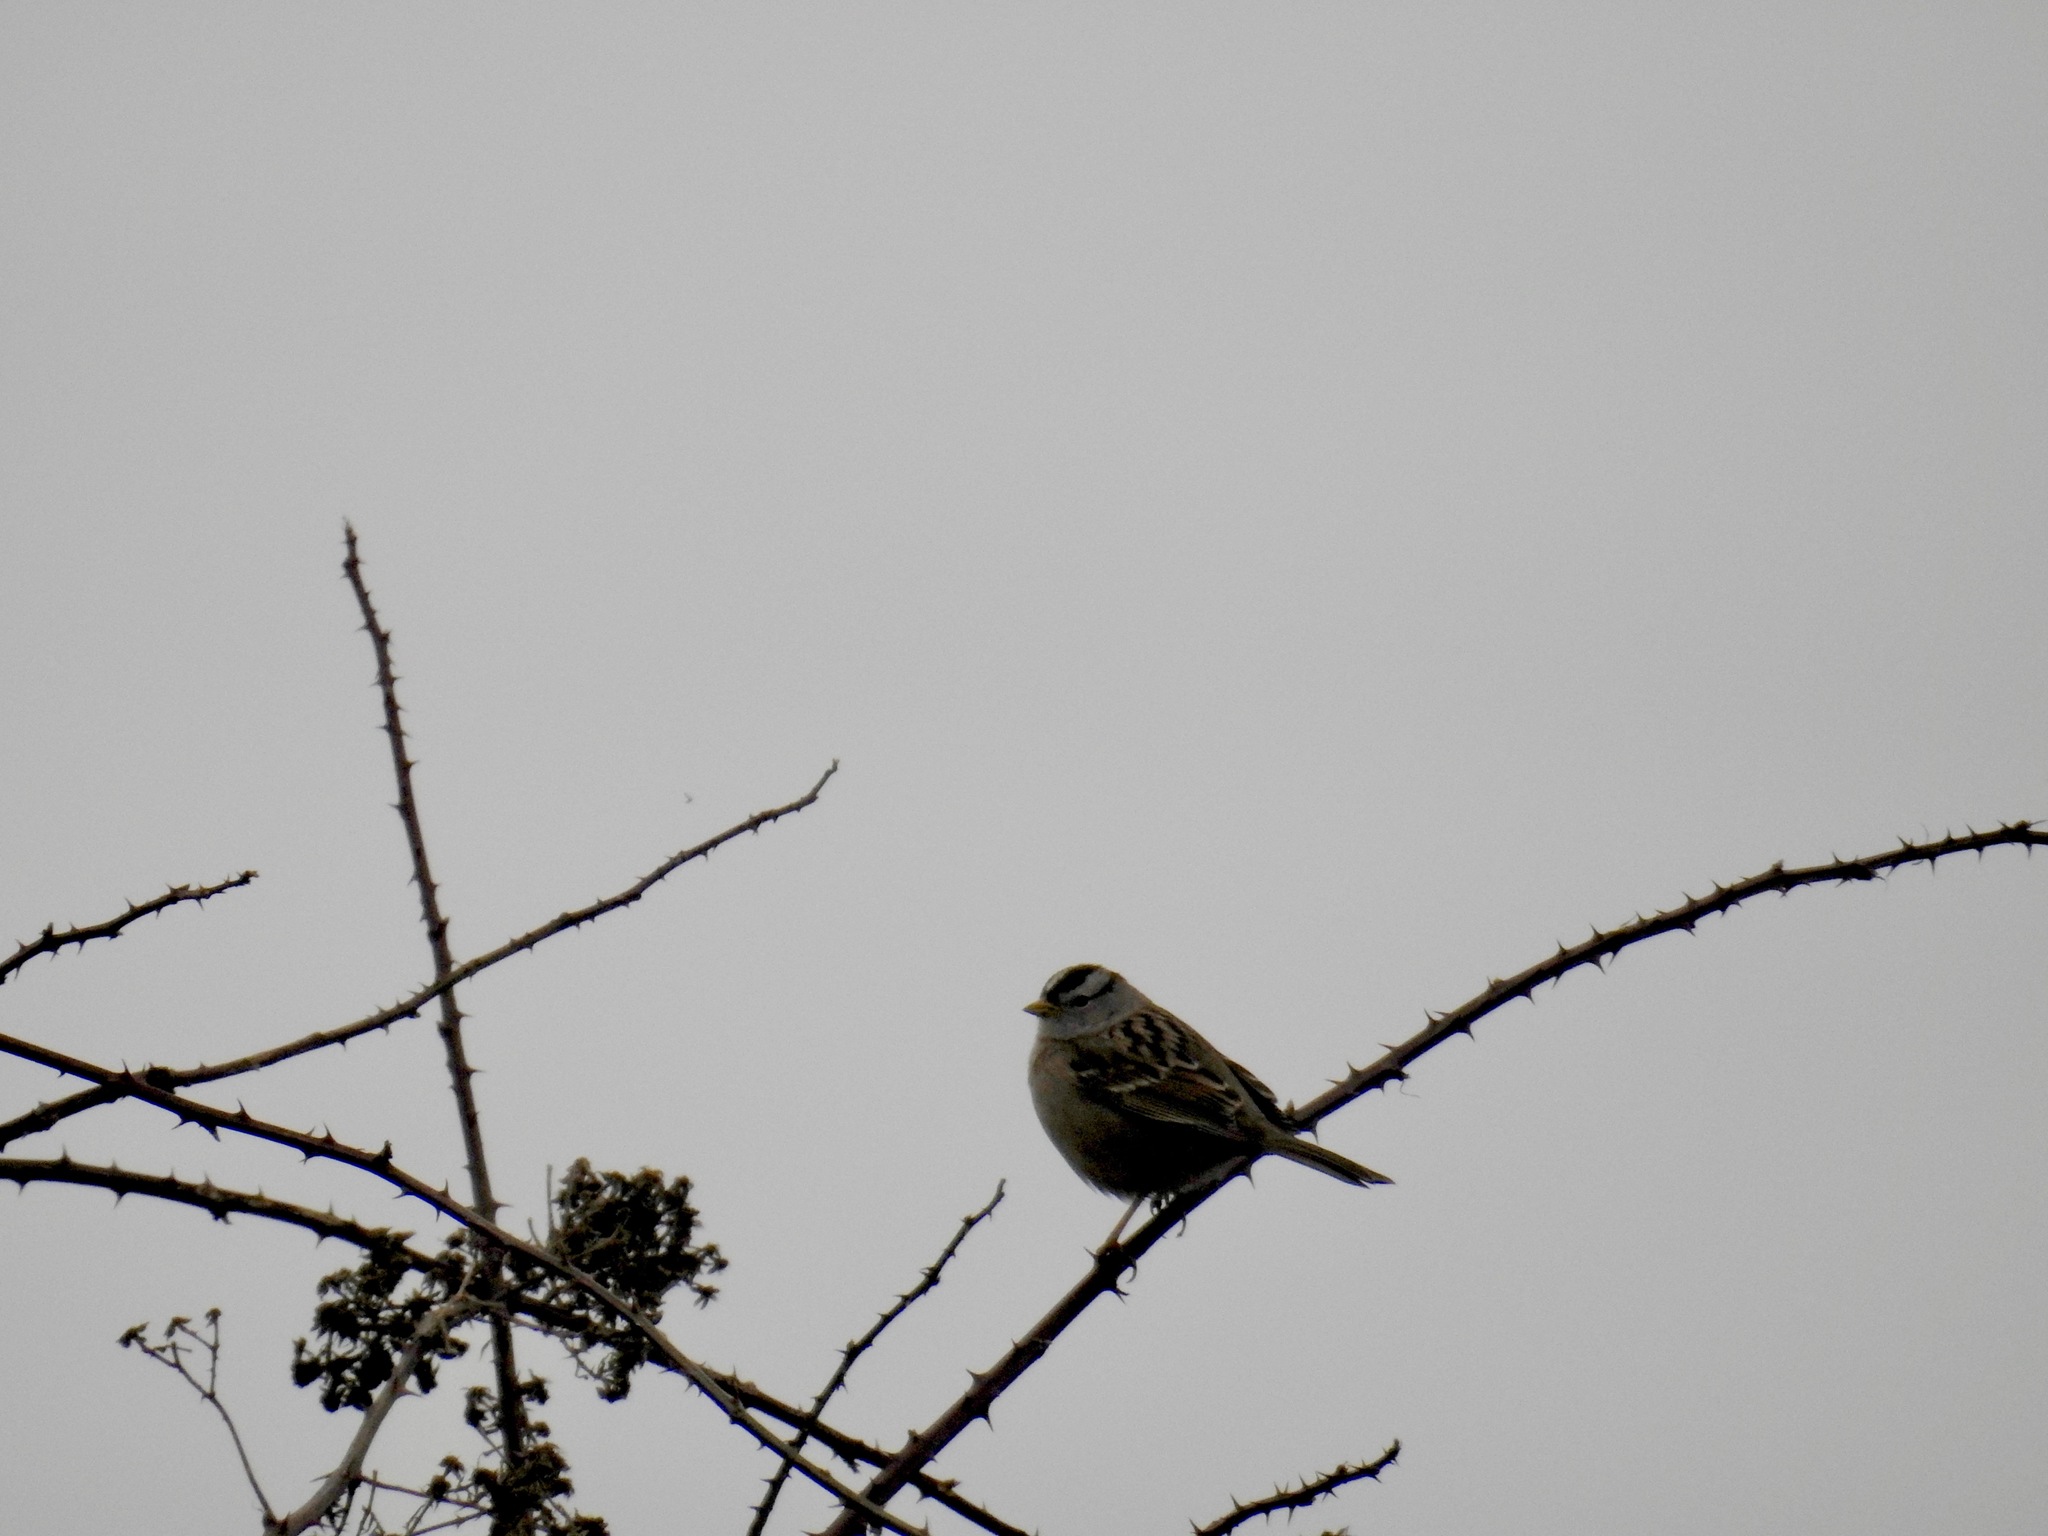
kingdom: Animalia
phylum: Chordata
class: Aves
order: Passeriformes
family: Passerellidae
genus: Zonotrichia
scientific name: Zonotrichia leucophrys
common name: White-crowned sparrow
